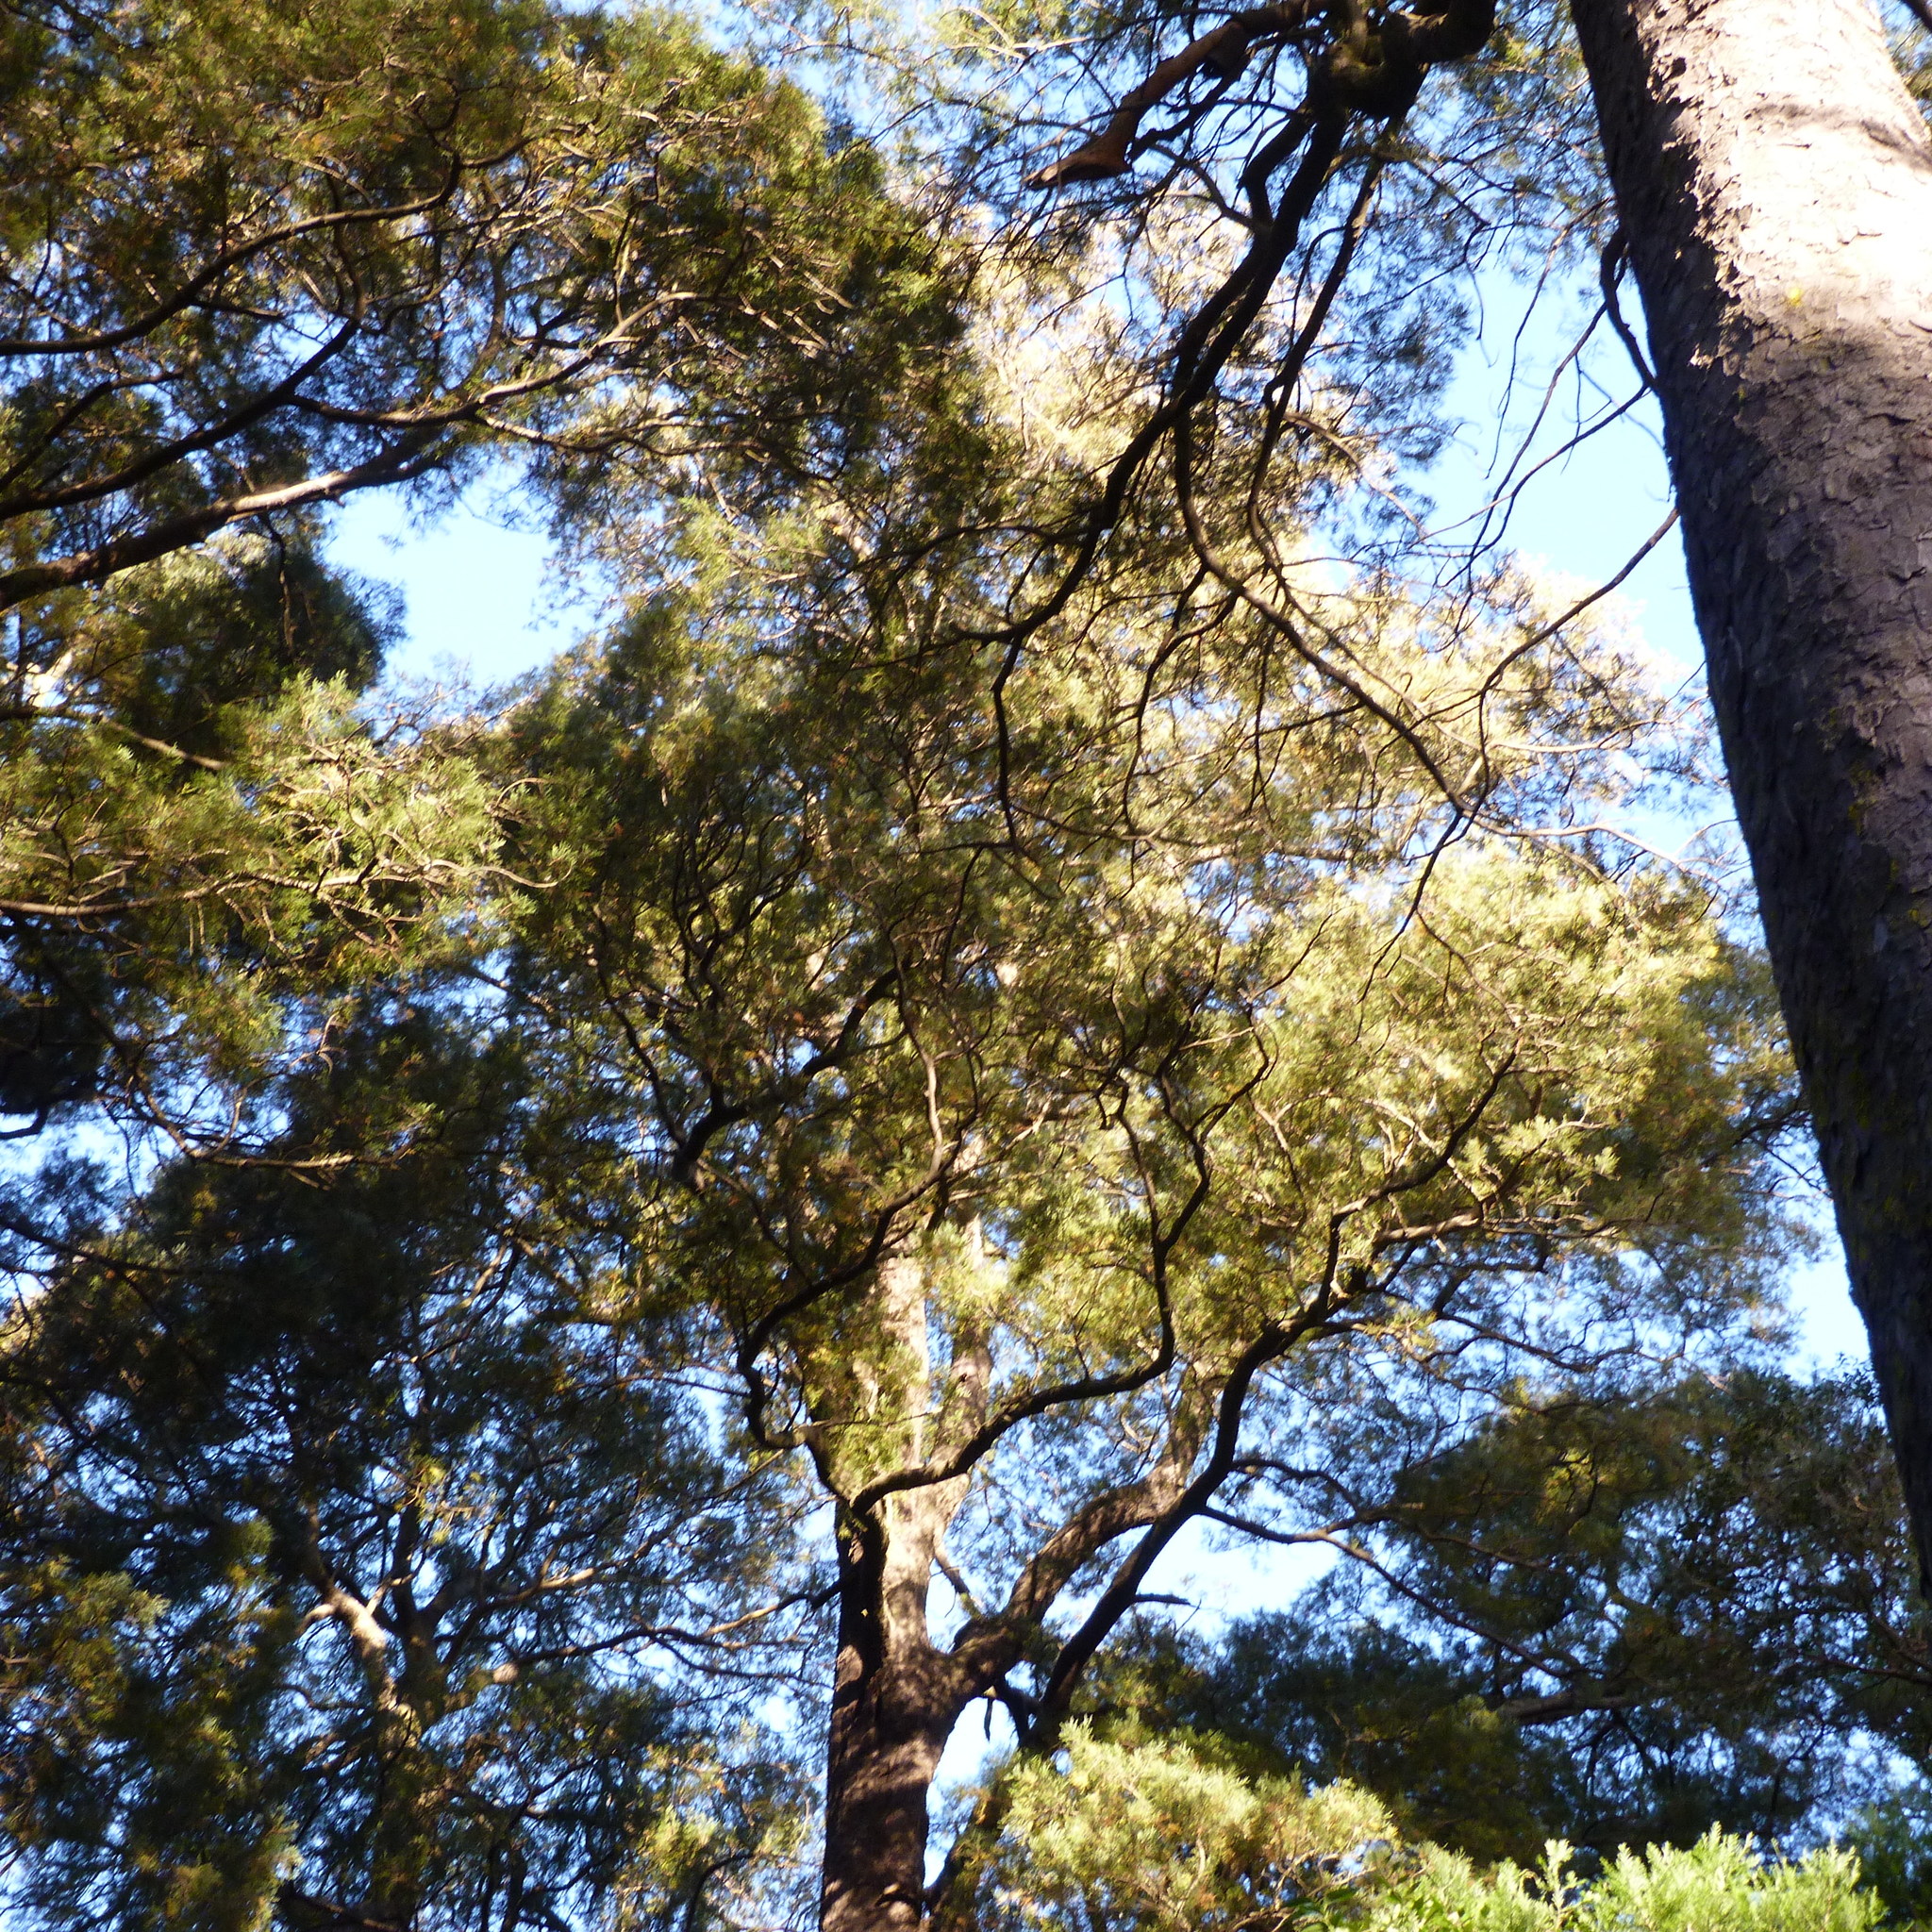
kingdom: Plantae
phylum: Tracheophyta
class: Pinopsida
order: Pinales
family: Podocarpaceae
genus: Dacrycarpus
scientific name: Dacrycarpus dacrydioides
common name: White pine
